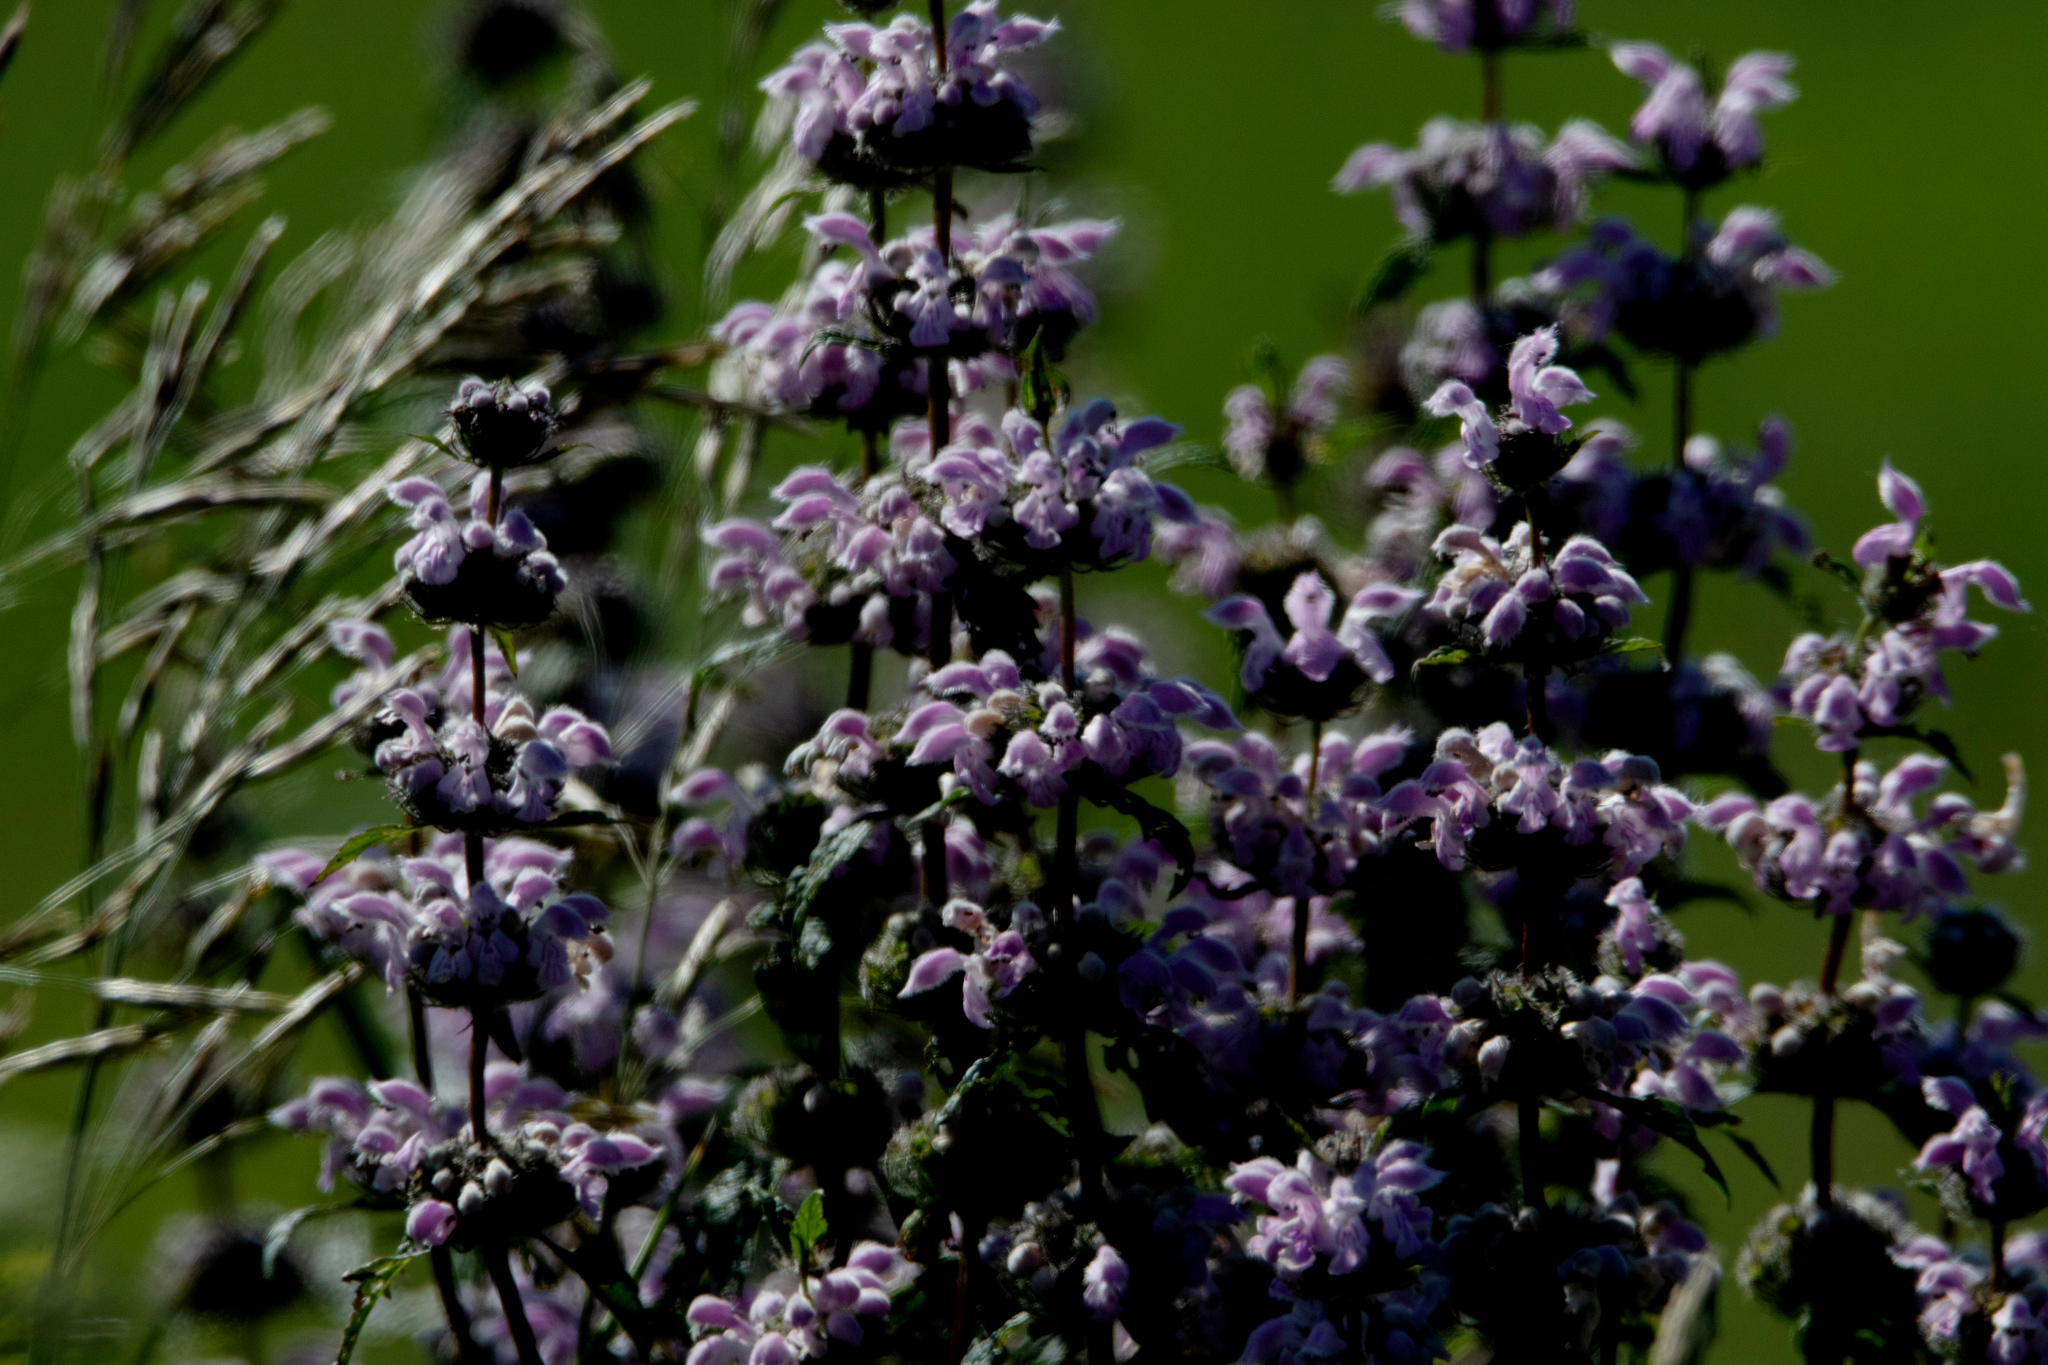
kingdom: Plantae
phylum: Tracheophyta
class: Magnoliopsida
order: Lamiales
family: Lamiaceae
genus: Phlomoides
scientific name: Phlomoides tuberosa
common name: Tuberous jerusalem sage
